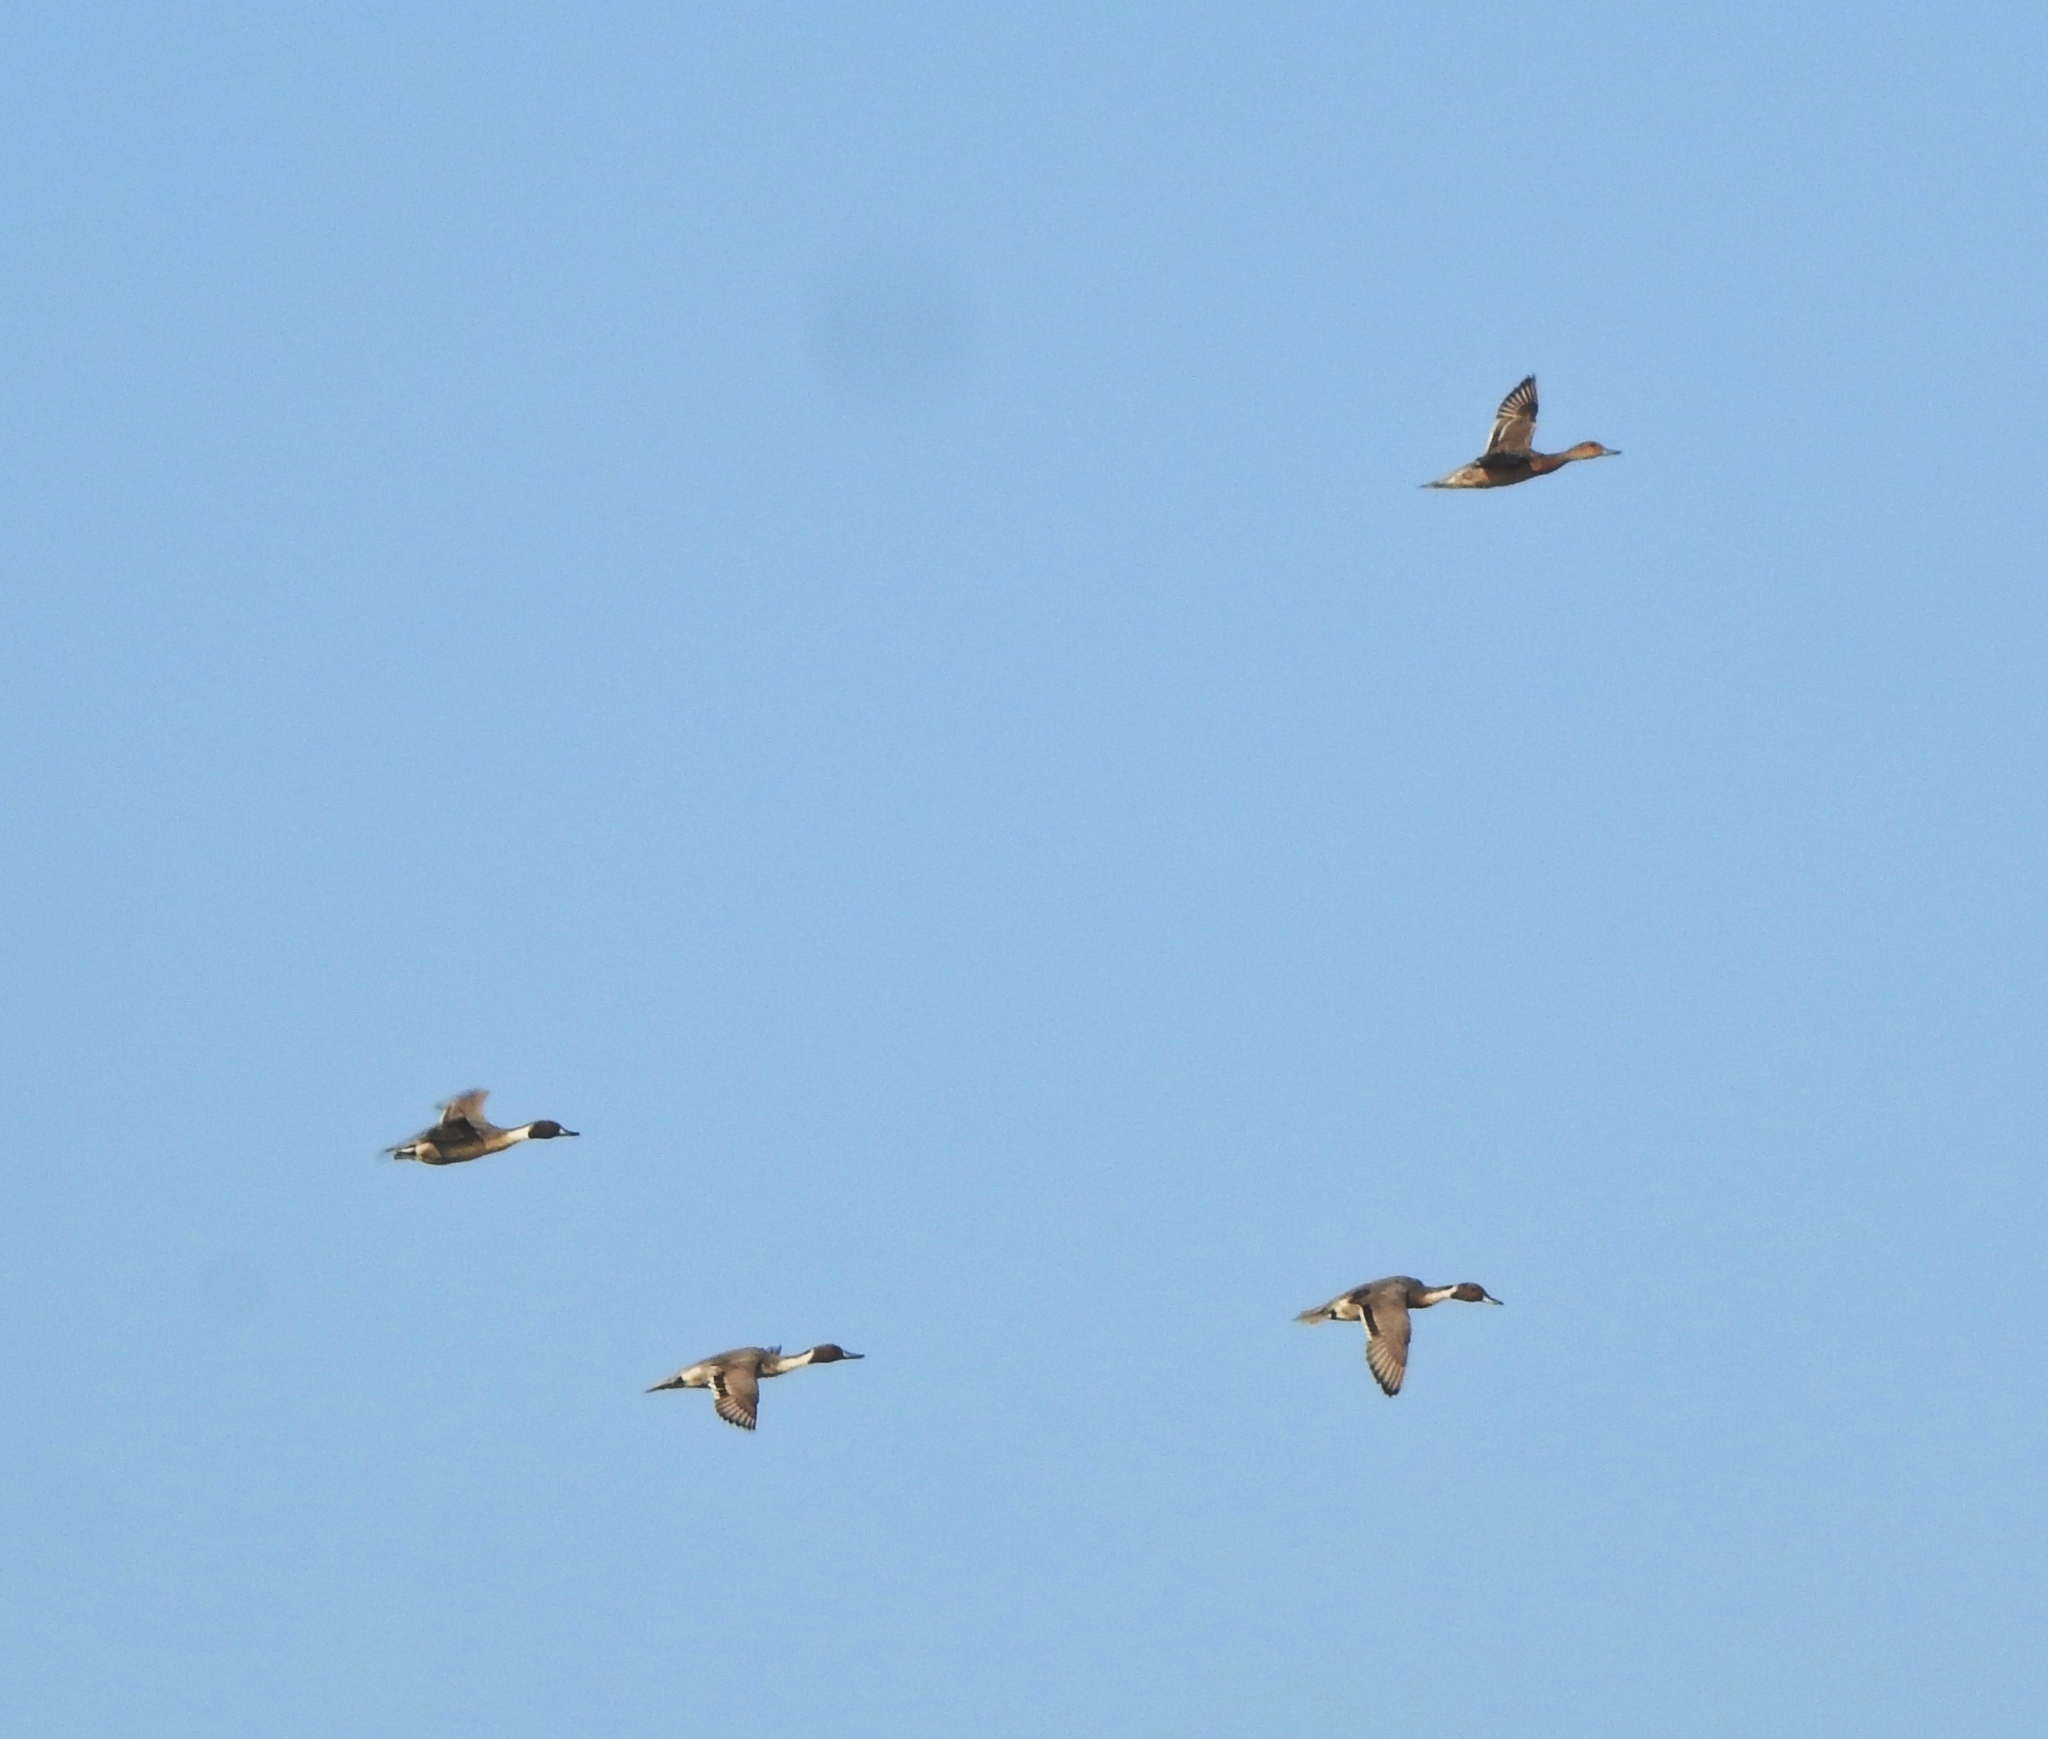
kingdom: Animalia
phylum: Chordata
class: Aves
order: Anseriformes
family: Anatidae
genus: Anas
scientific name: Anas acuta
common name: Northern pintail
